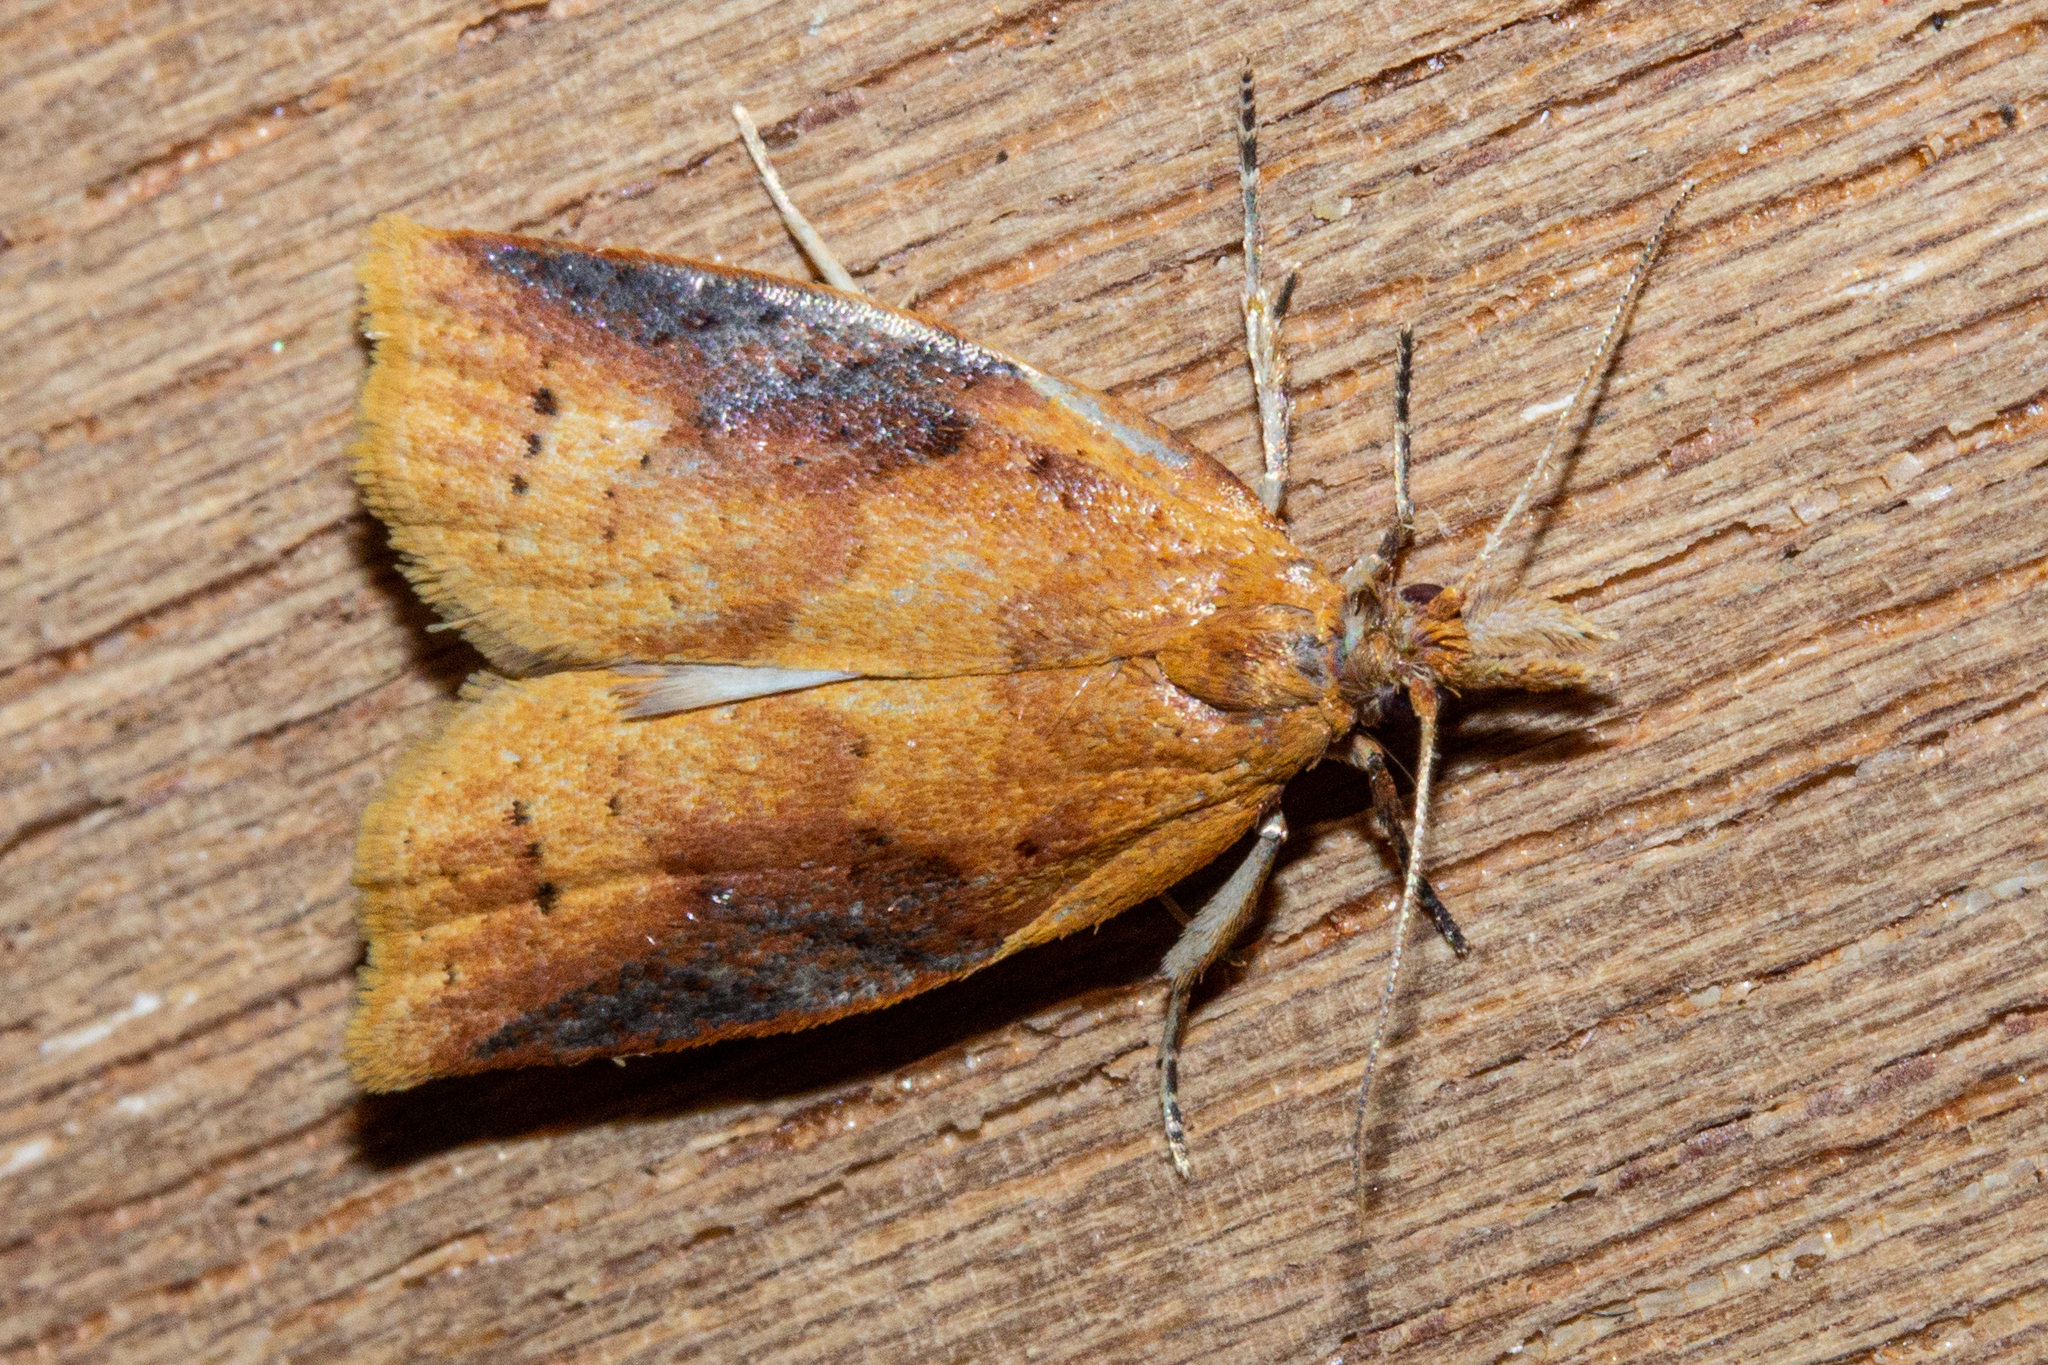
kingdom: Animalia
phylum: Arthropoda
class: Insecta
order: Lepidoptera
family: Tortricidae
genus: Apoctena
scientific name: Apoctena conditana
